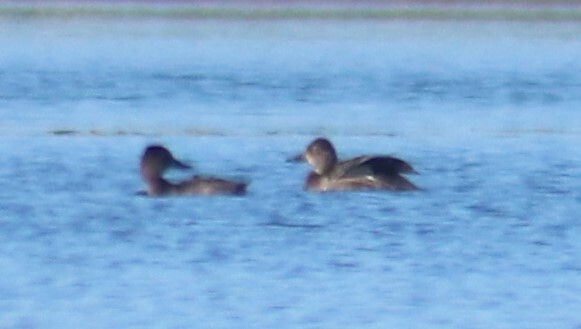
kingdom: Animalia
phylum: Chordata
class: Aves
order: Anseriformes
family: Anatidae
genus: Aythya
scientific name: Aythya collaris
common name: Ring-necked duck
